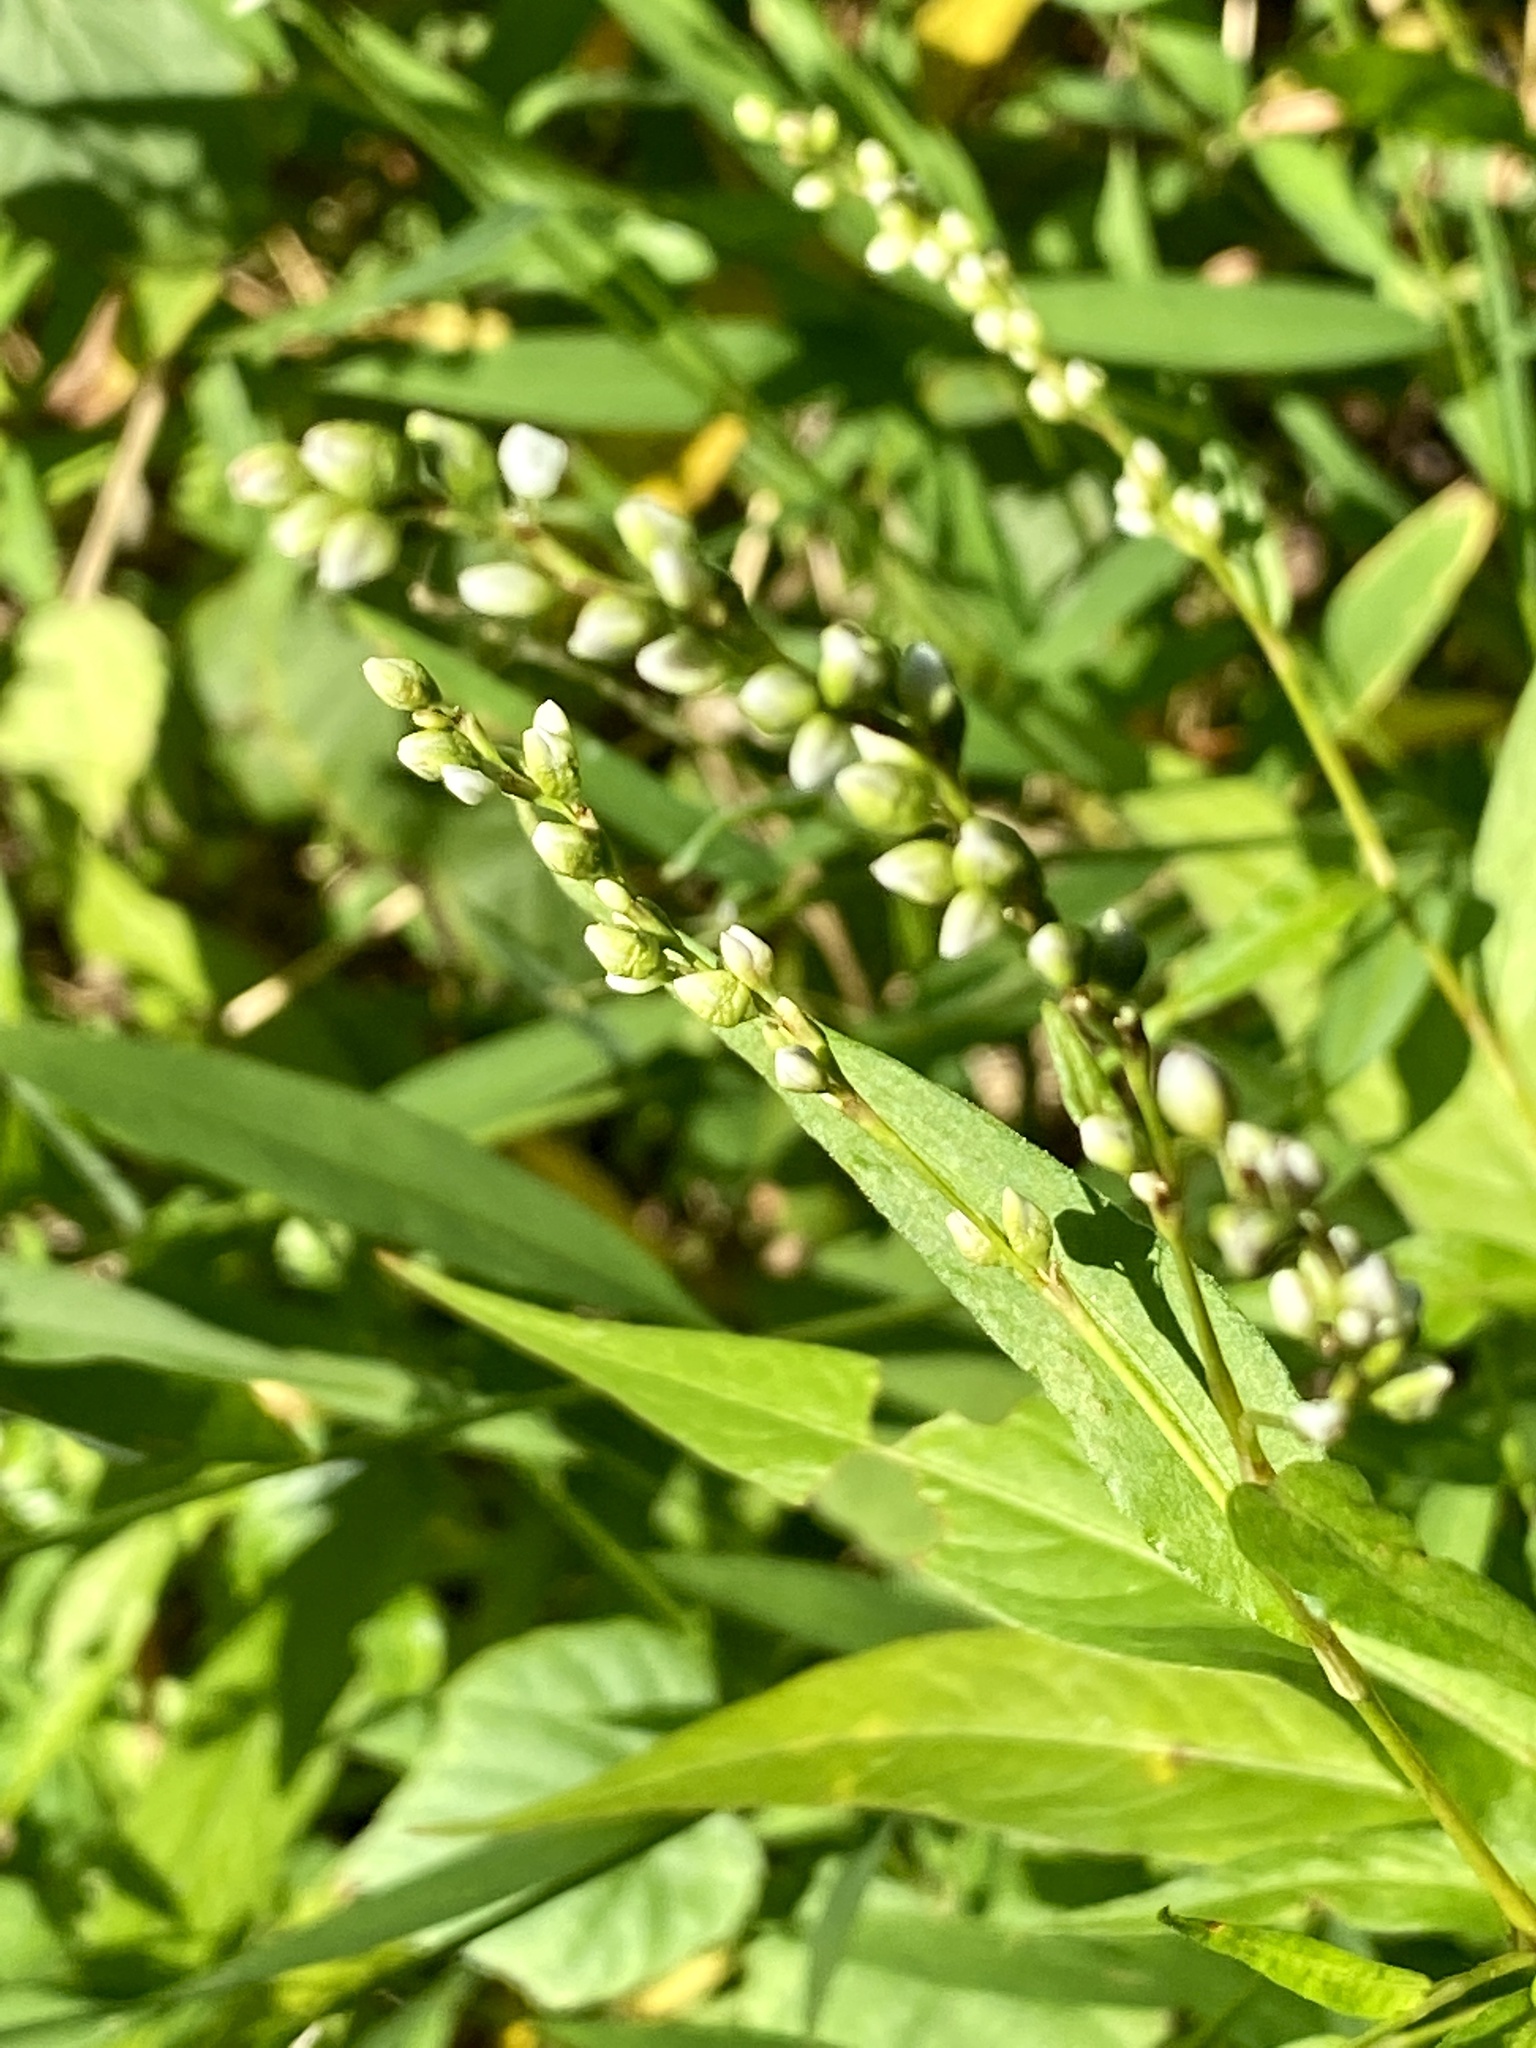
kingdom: Plantae
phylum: Tracheophyta
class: Magnoliopsida
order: Caryophyllales
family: Polygonaceae
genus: Persicaria
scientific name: Persicaria punctata
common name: Dotted smartweed
